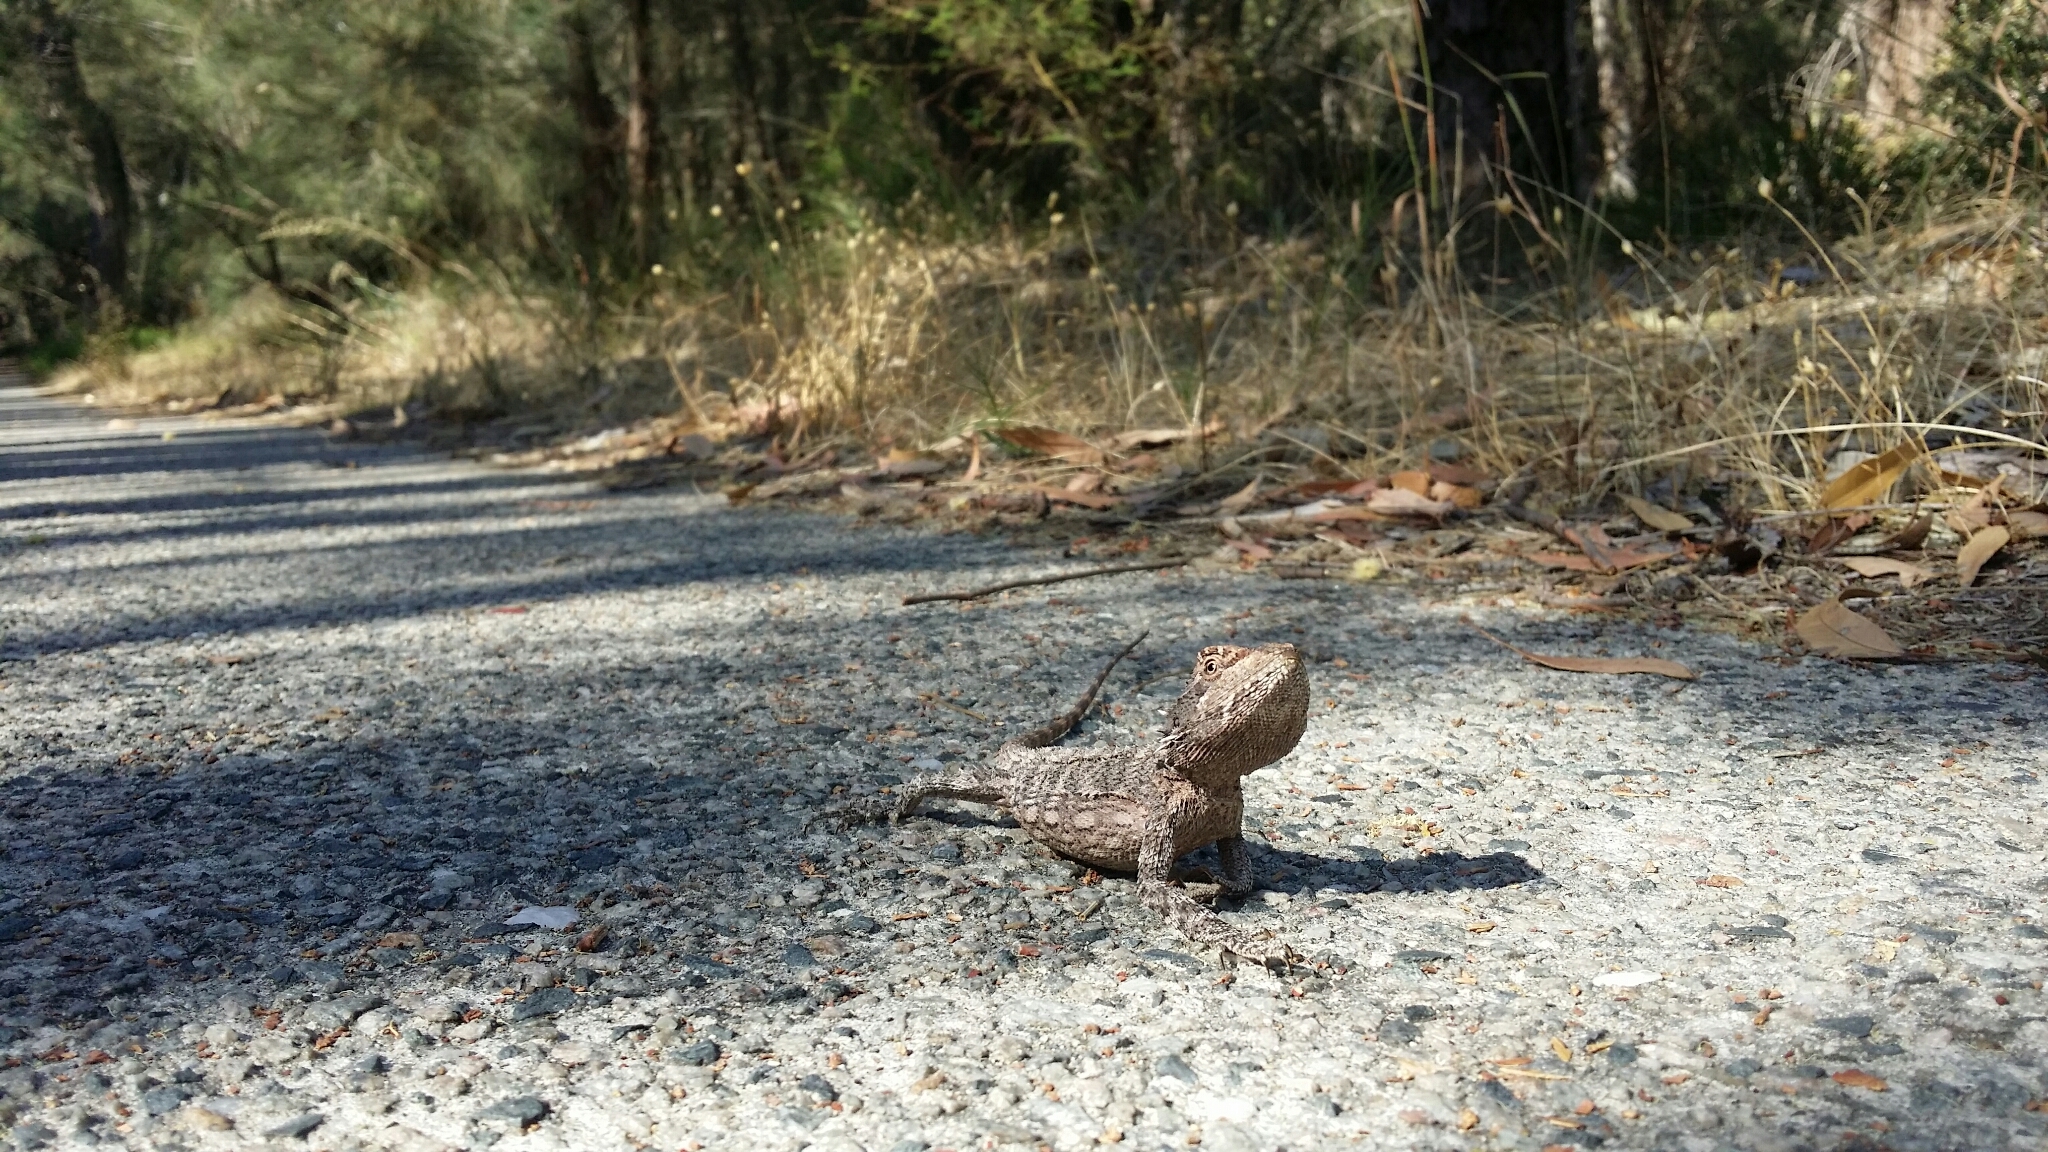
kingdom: Animalia
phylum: Chordata
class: Squamata
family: Agamidae
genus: Pogona
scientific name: Pogona minor
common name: Dwarf bearded dragon
